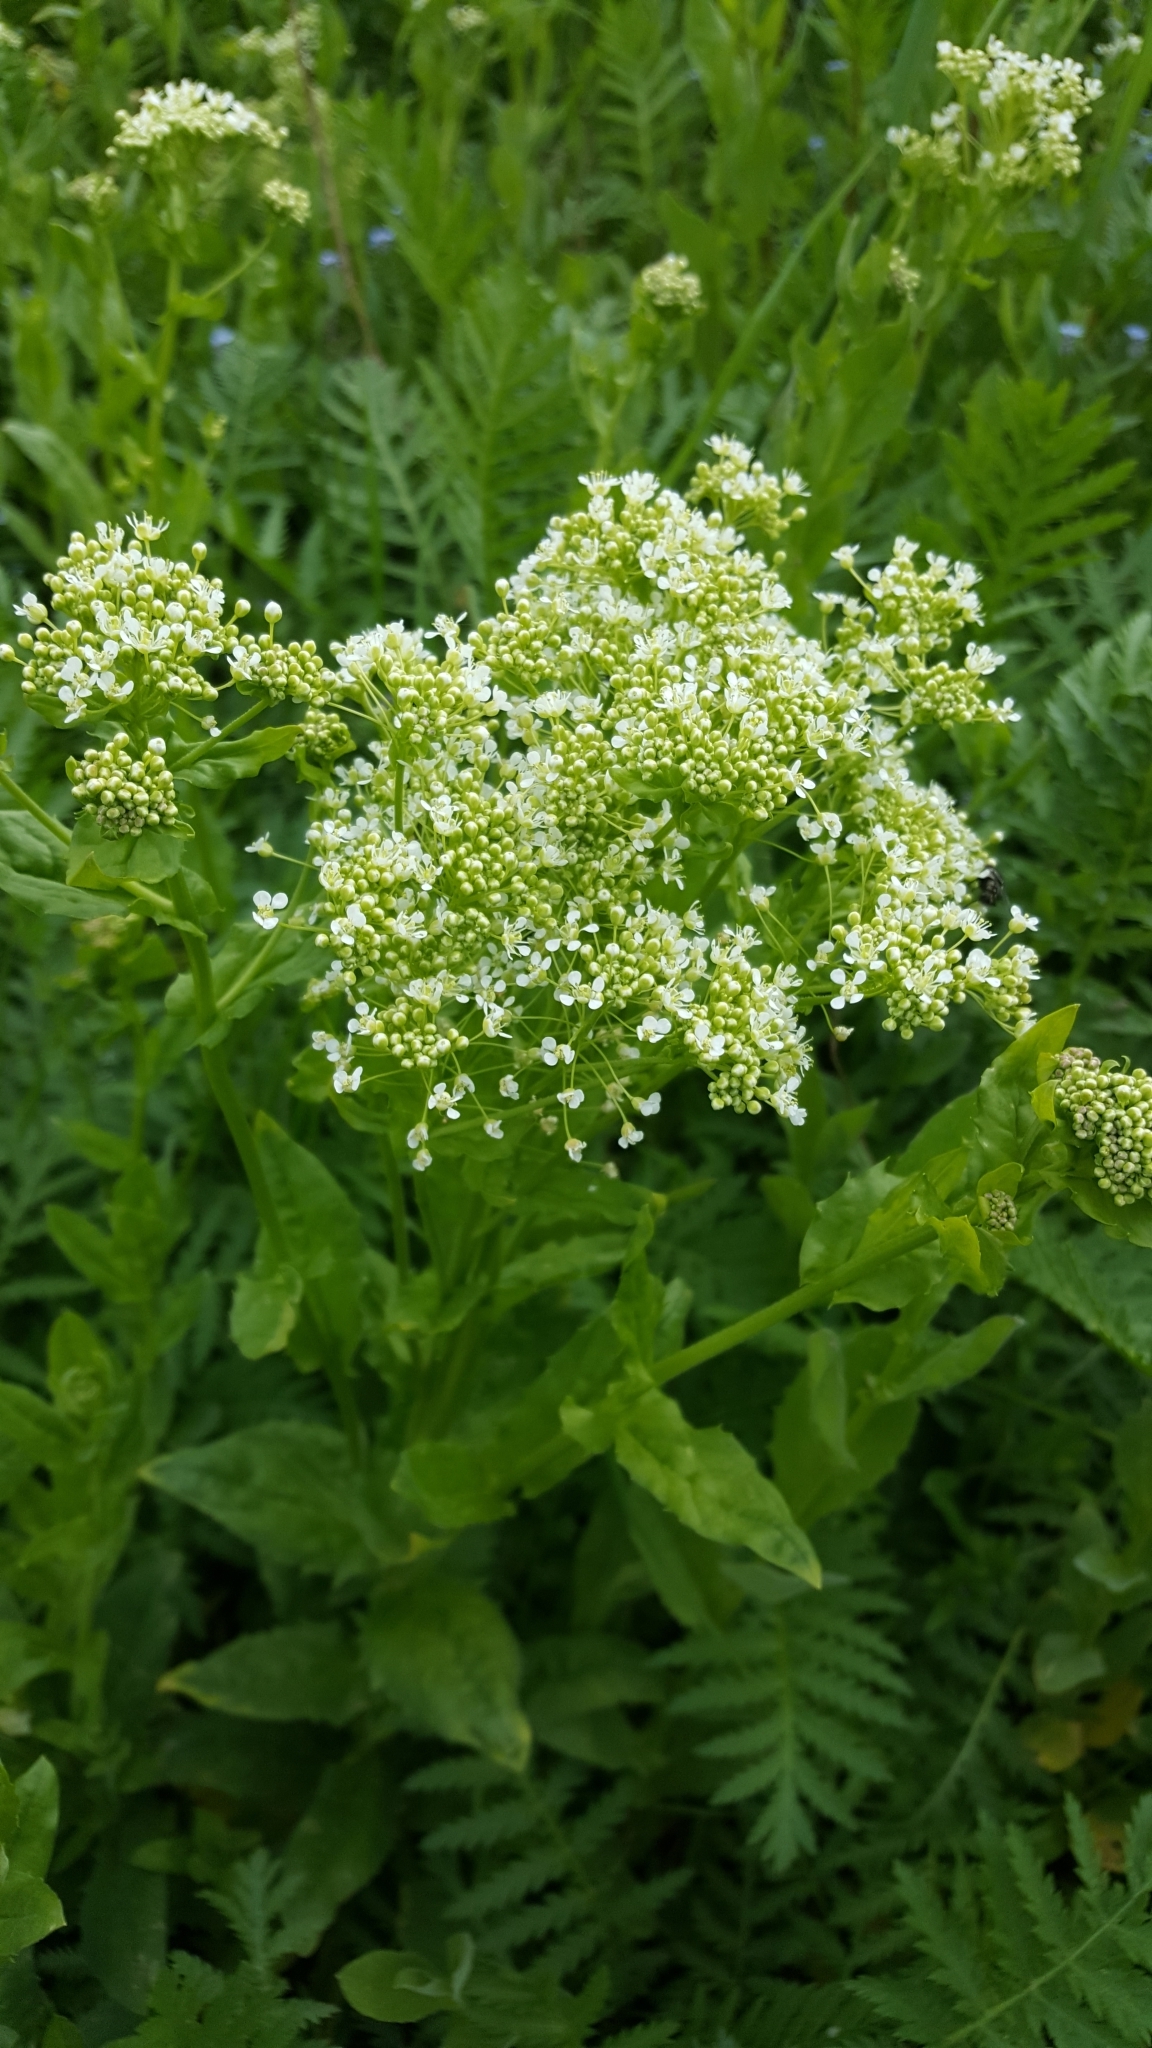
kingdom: Plantae
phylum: Tracheophyta
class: Magnoliopsida
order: Brassicales
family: Brassicaceae
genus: Lepidium
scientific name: Lepidium draba
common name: Hoary cress
